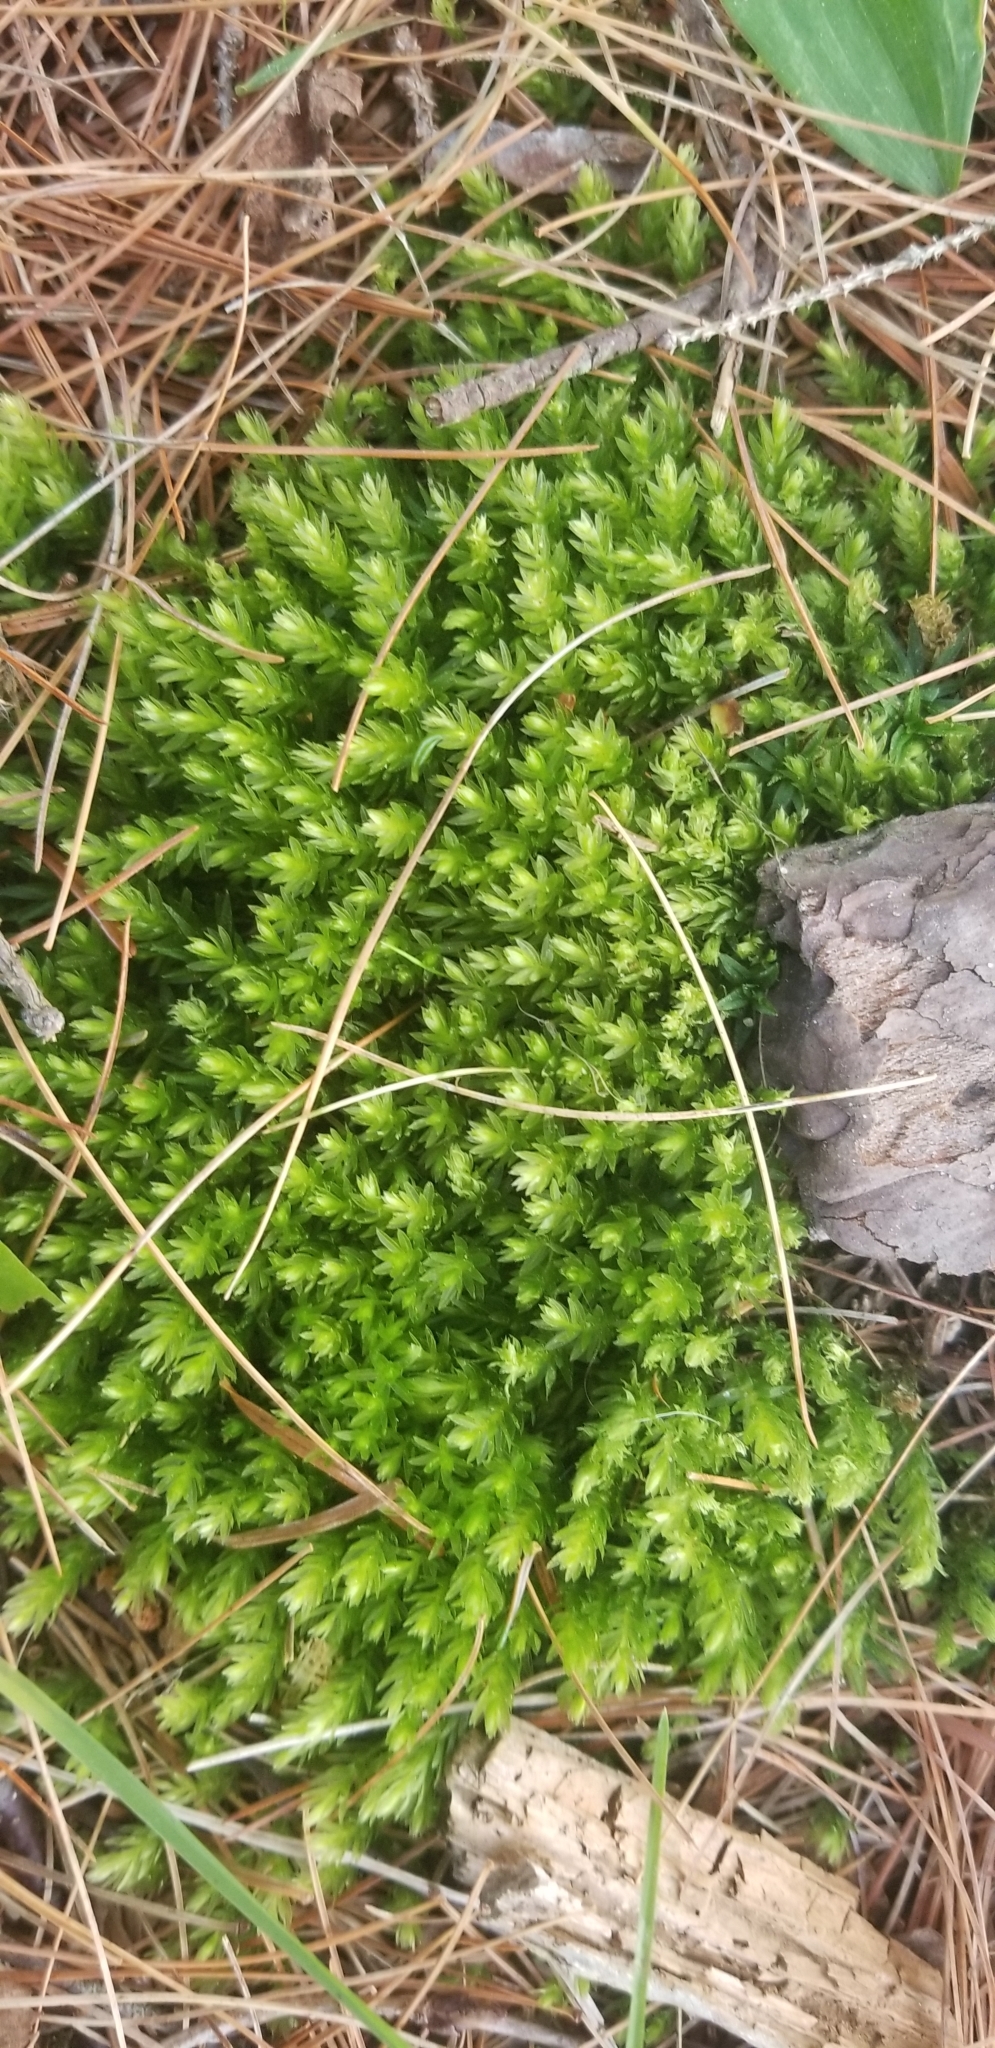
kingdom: Plantae
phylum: Bryophyta
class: Bryopsida
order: Bryales
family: Mniaceae
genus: Mnium
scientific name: Mnium hornum
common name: Swan's-neck leafy moss
